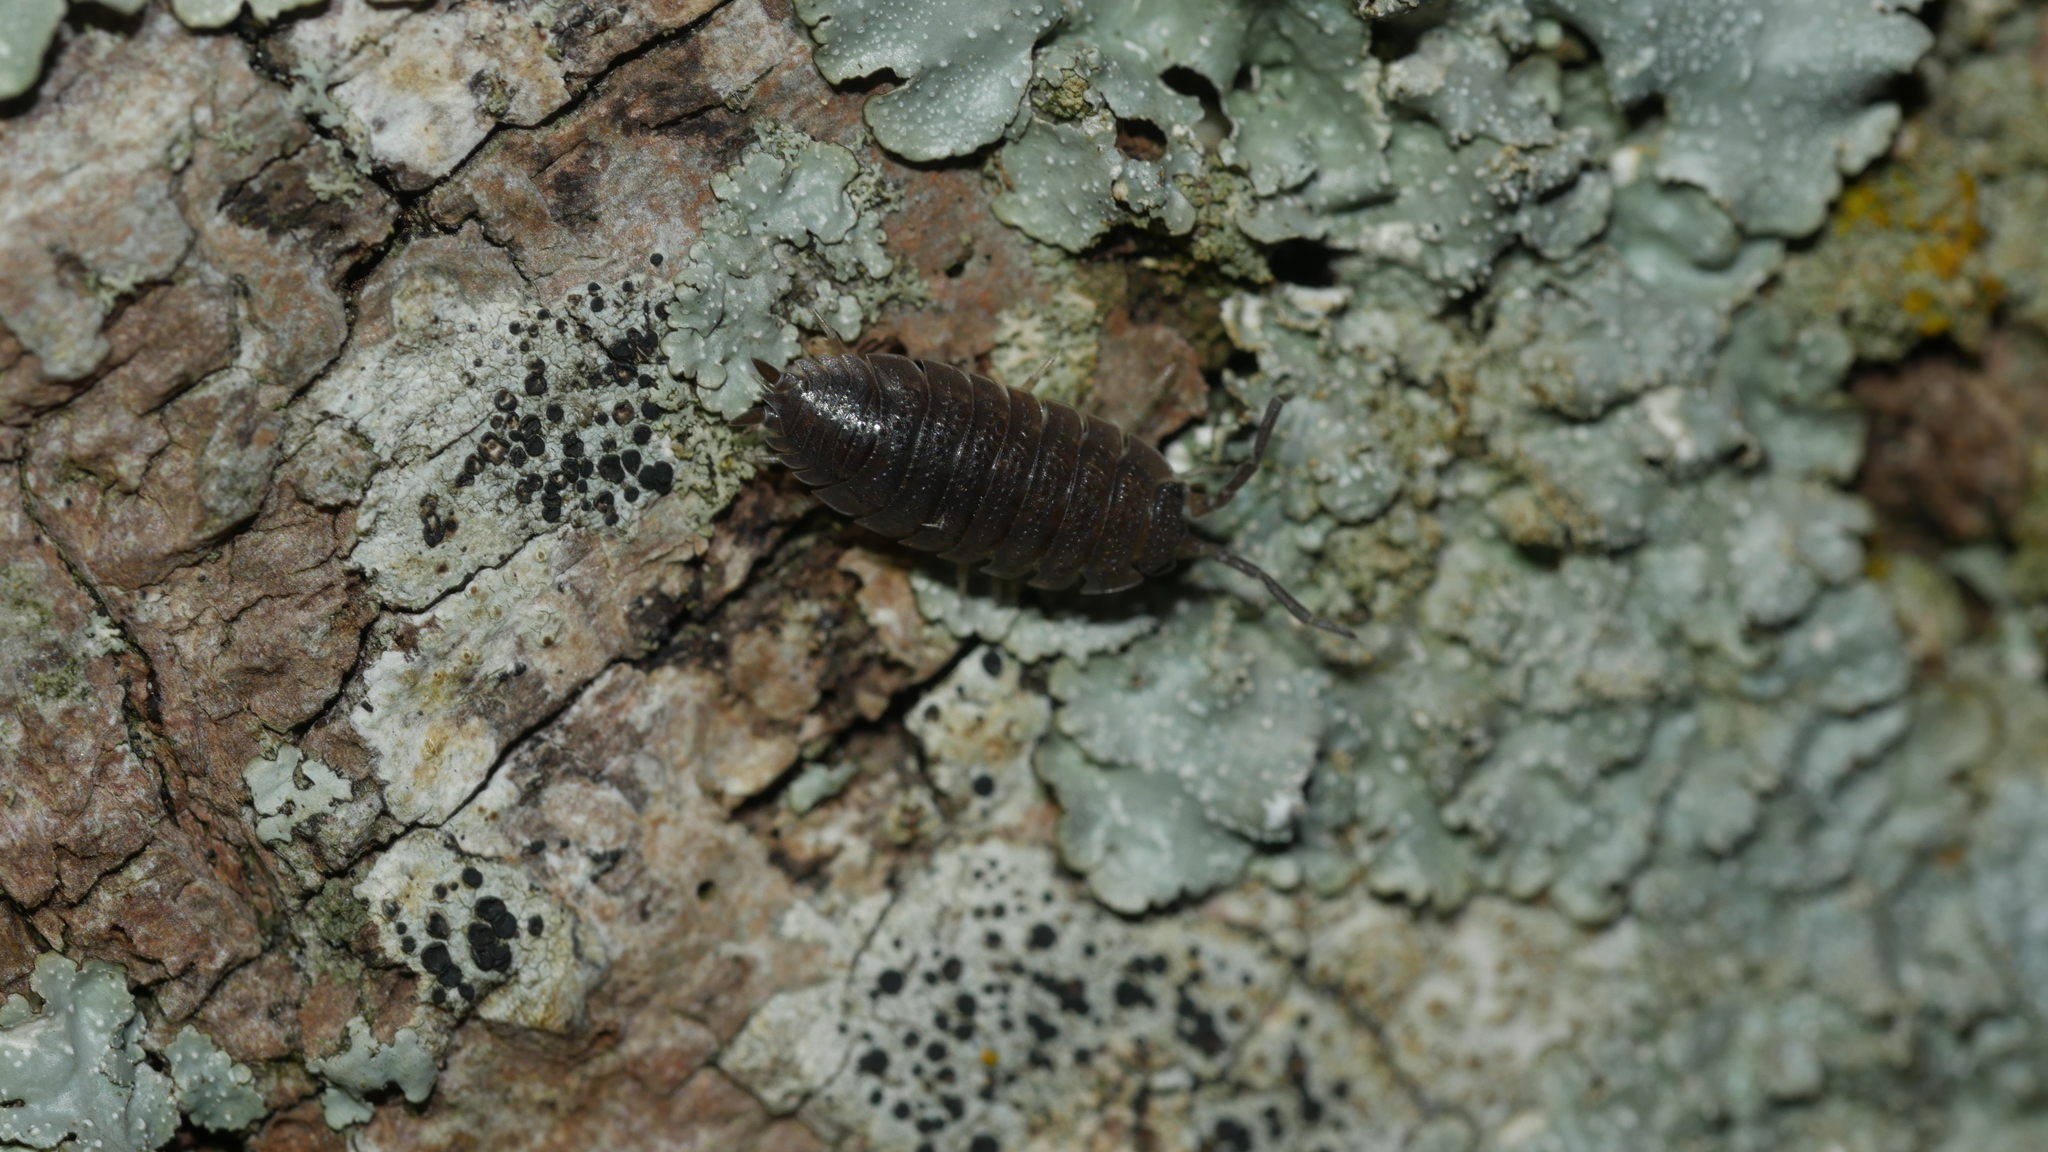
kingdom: Animalia
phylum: Arthropoda
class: Malacostraca
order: Isopoda
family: Porcellionidae
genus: Porcellio
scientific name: Porcellio scaber
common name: Common rough woodlouse
